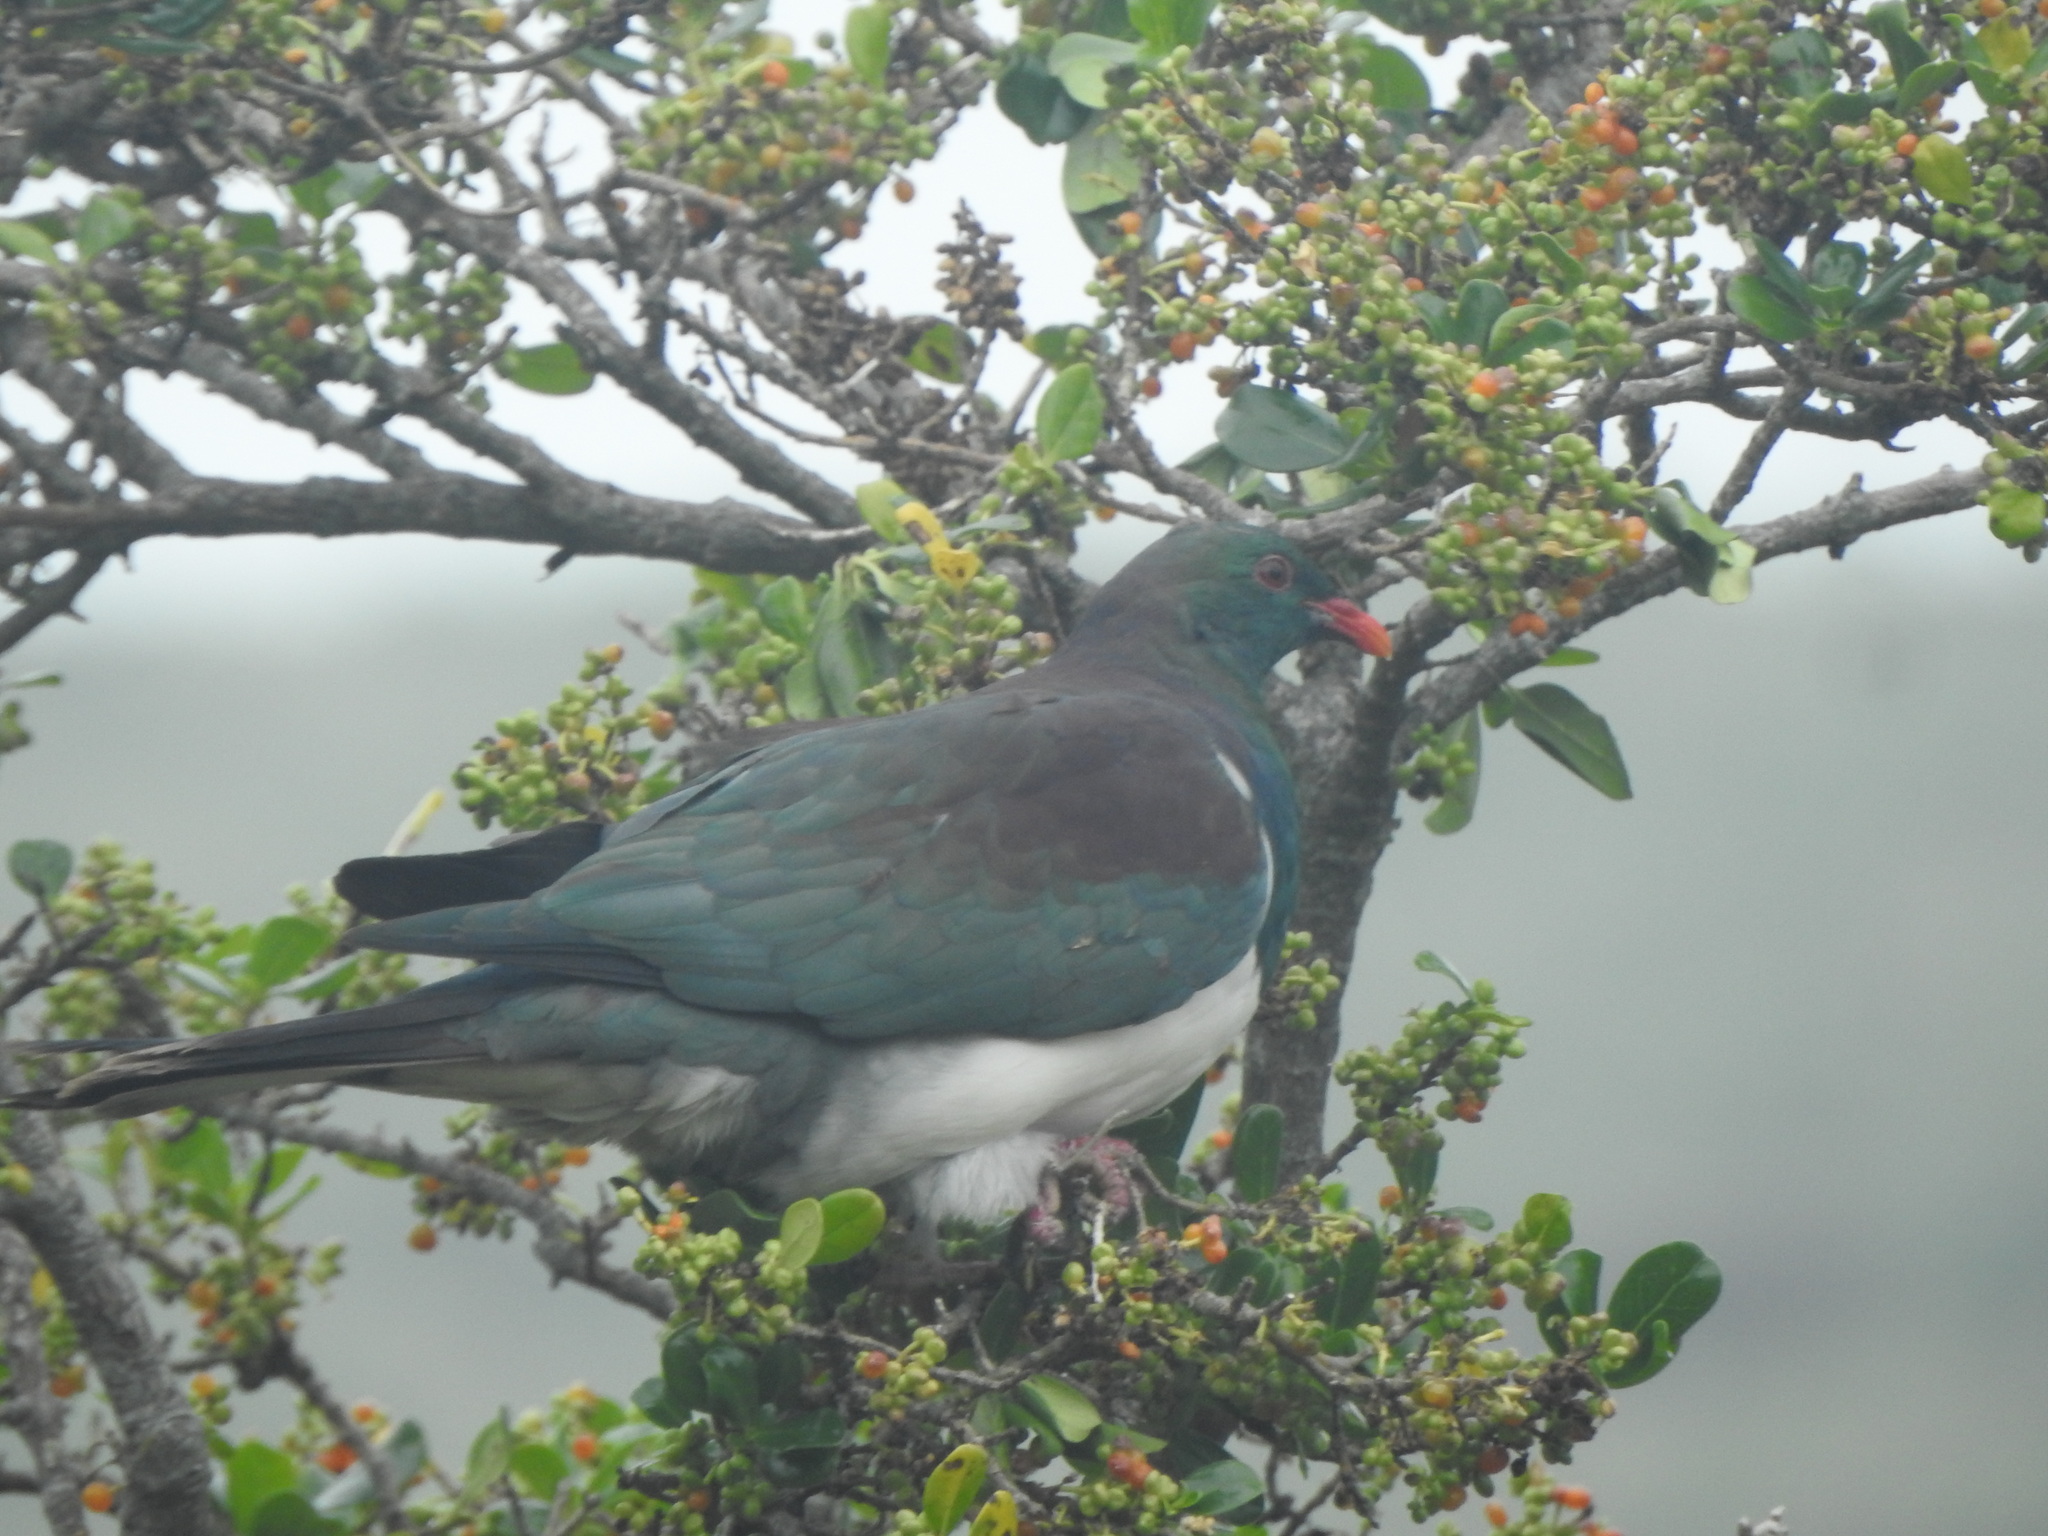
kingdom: Animalia
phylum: Chordata
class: Aves
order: Columbiformes
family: Columbidae
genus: Hemiphaga
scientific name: Hemiphaga novaeseelandiae
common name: New zealand pigeon
